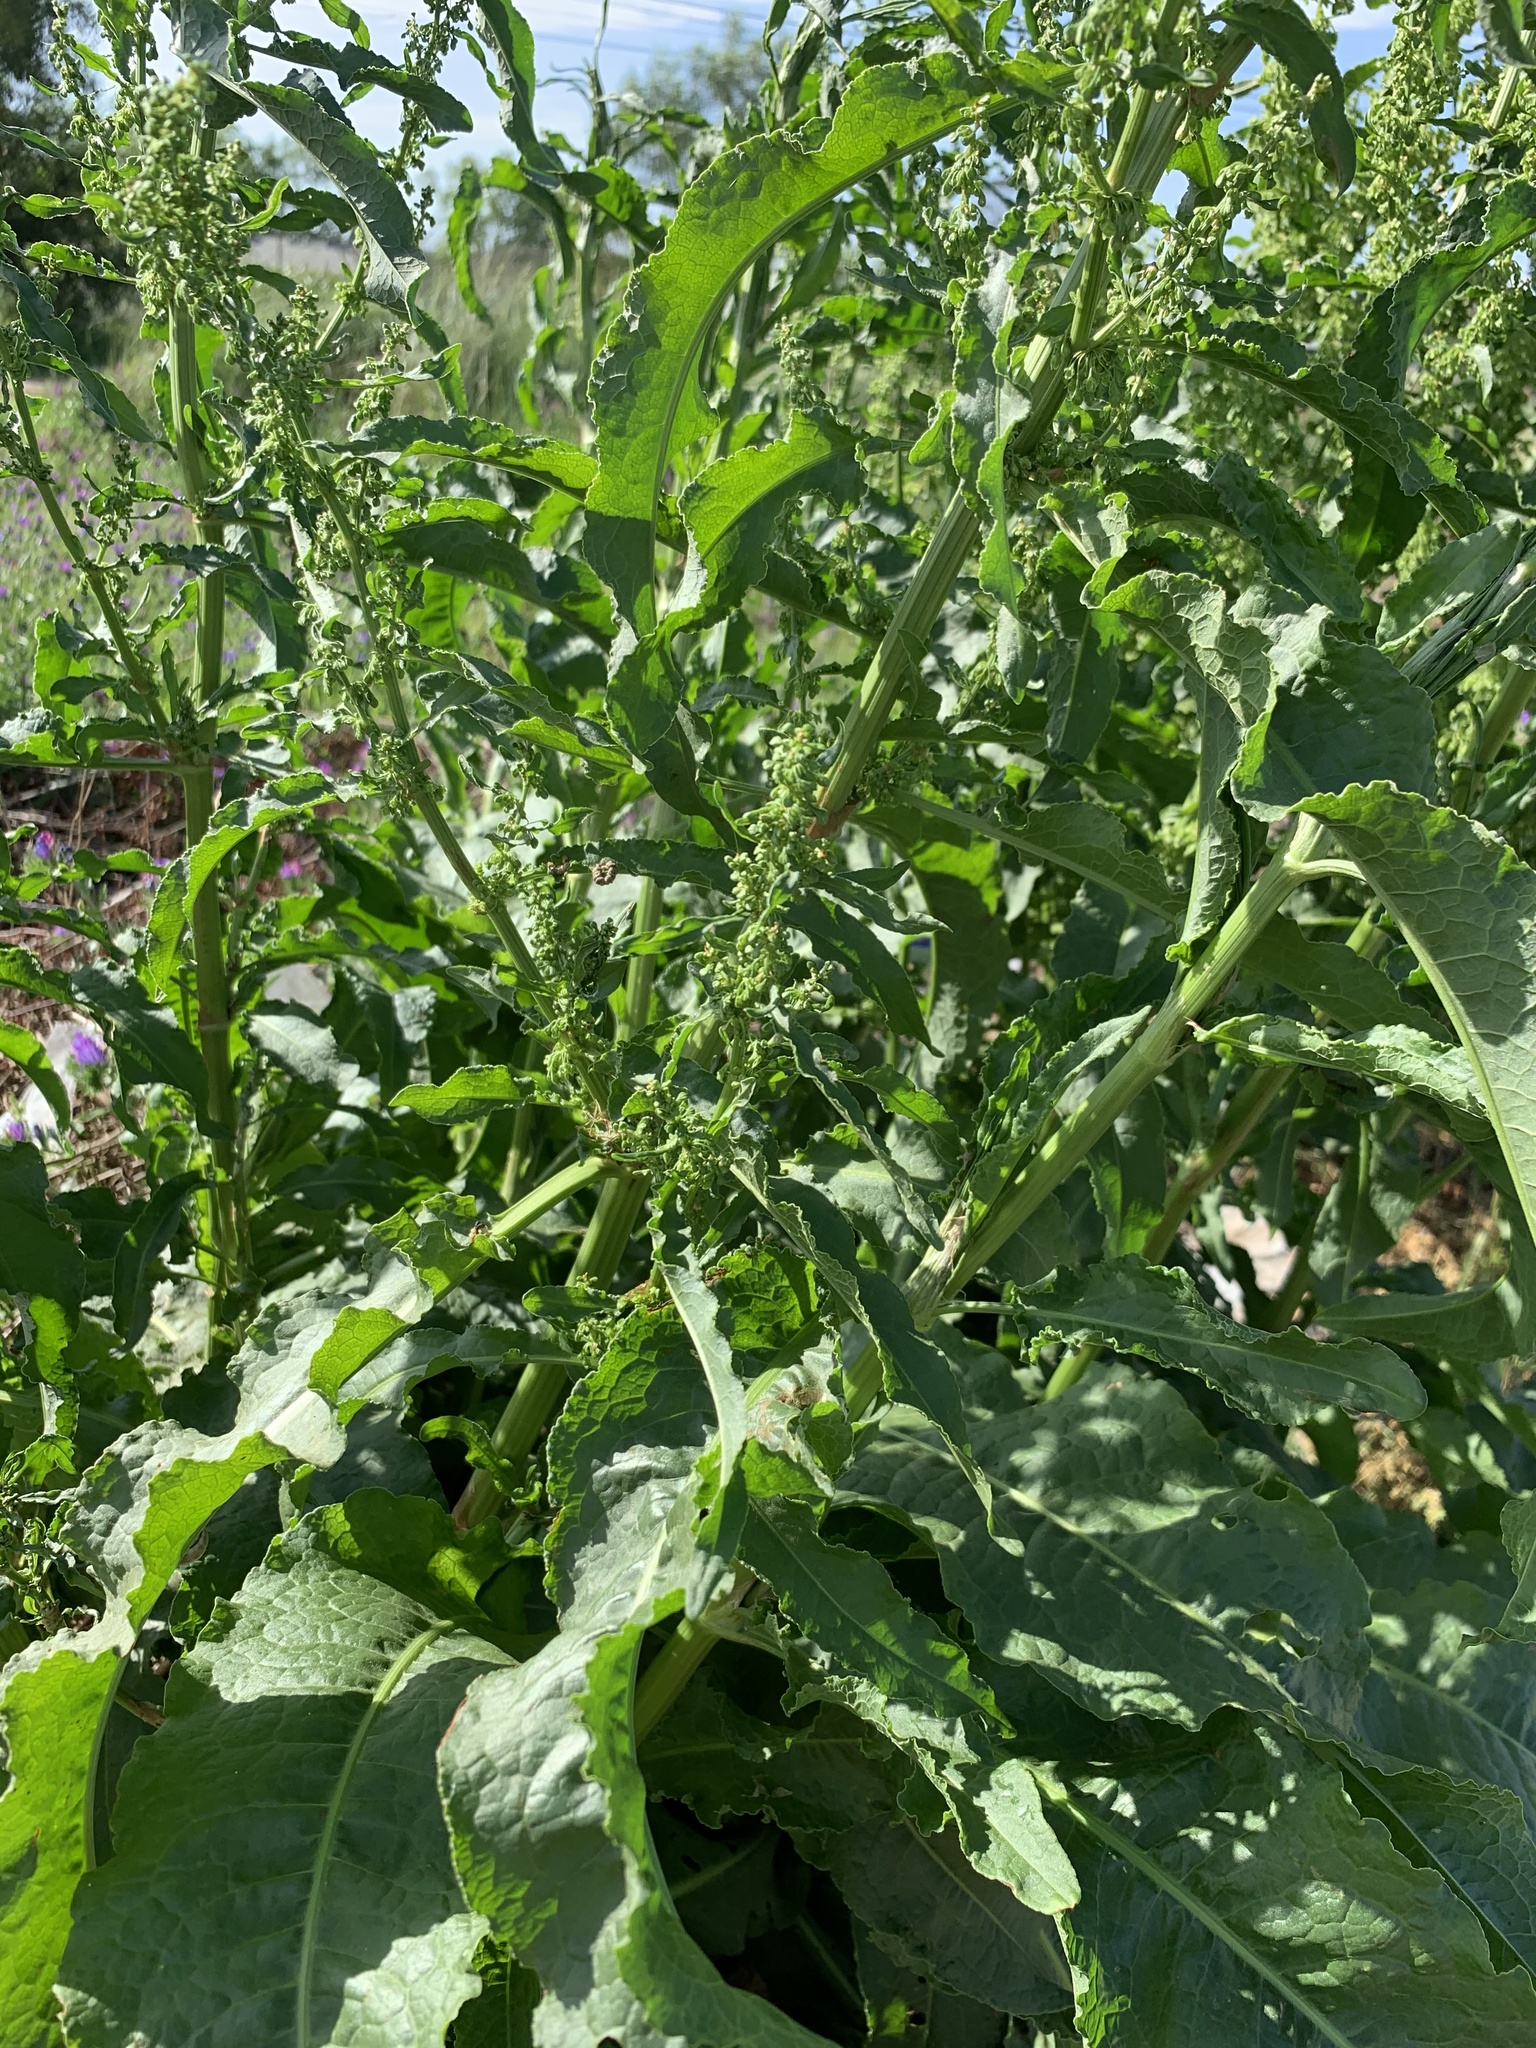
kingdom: Plantae
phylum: Tracheophyta
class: Magnoliopsida
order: Caryophyllales
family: Polygonaceae
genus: Rumex
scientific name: Rumex crispus
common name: Curled dock
